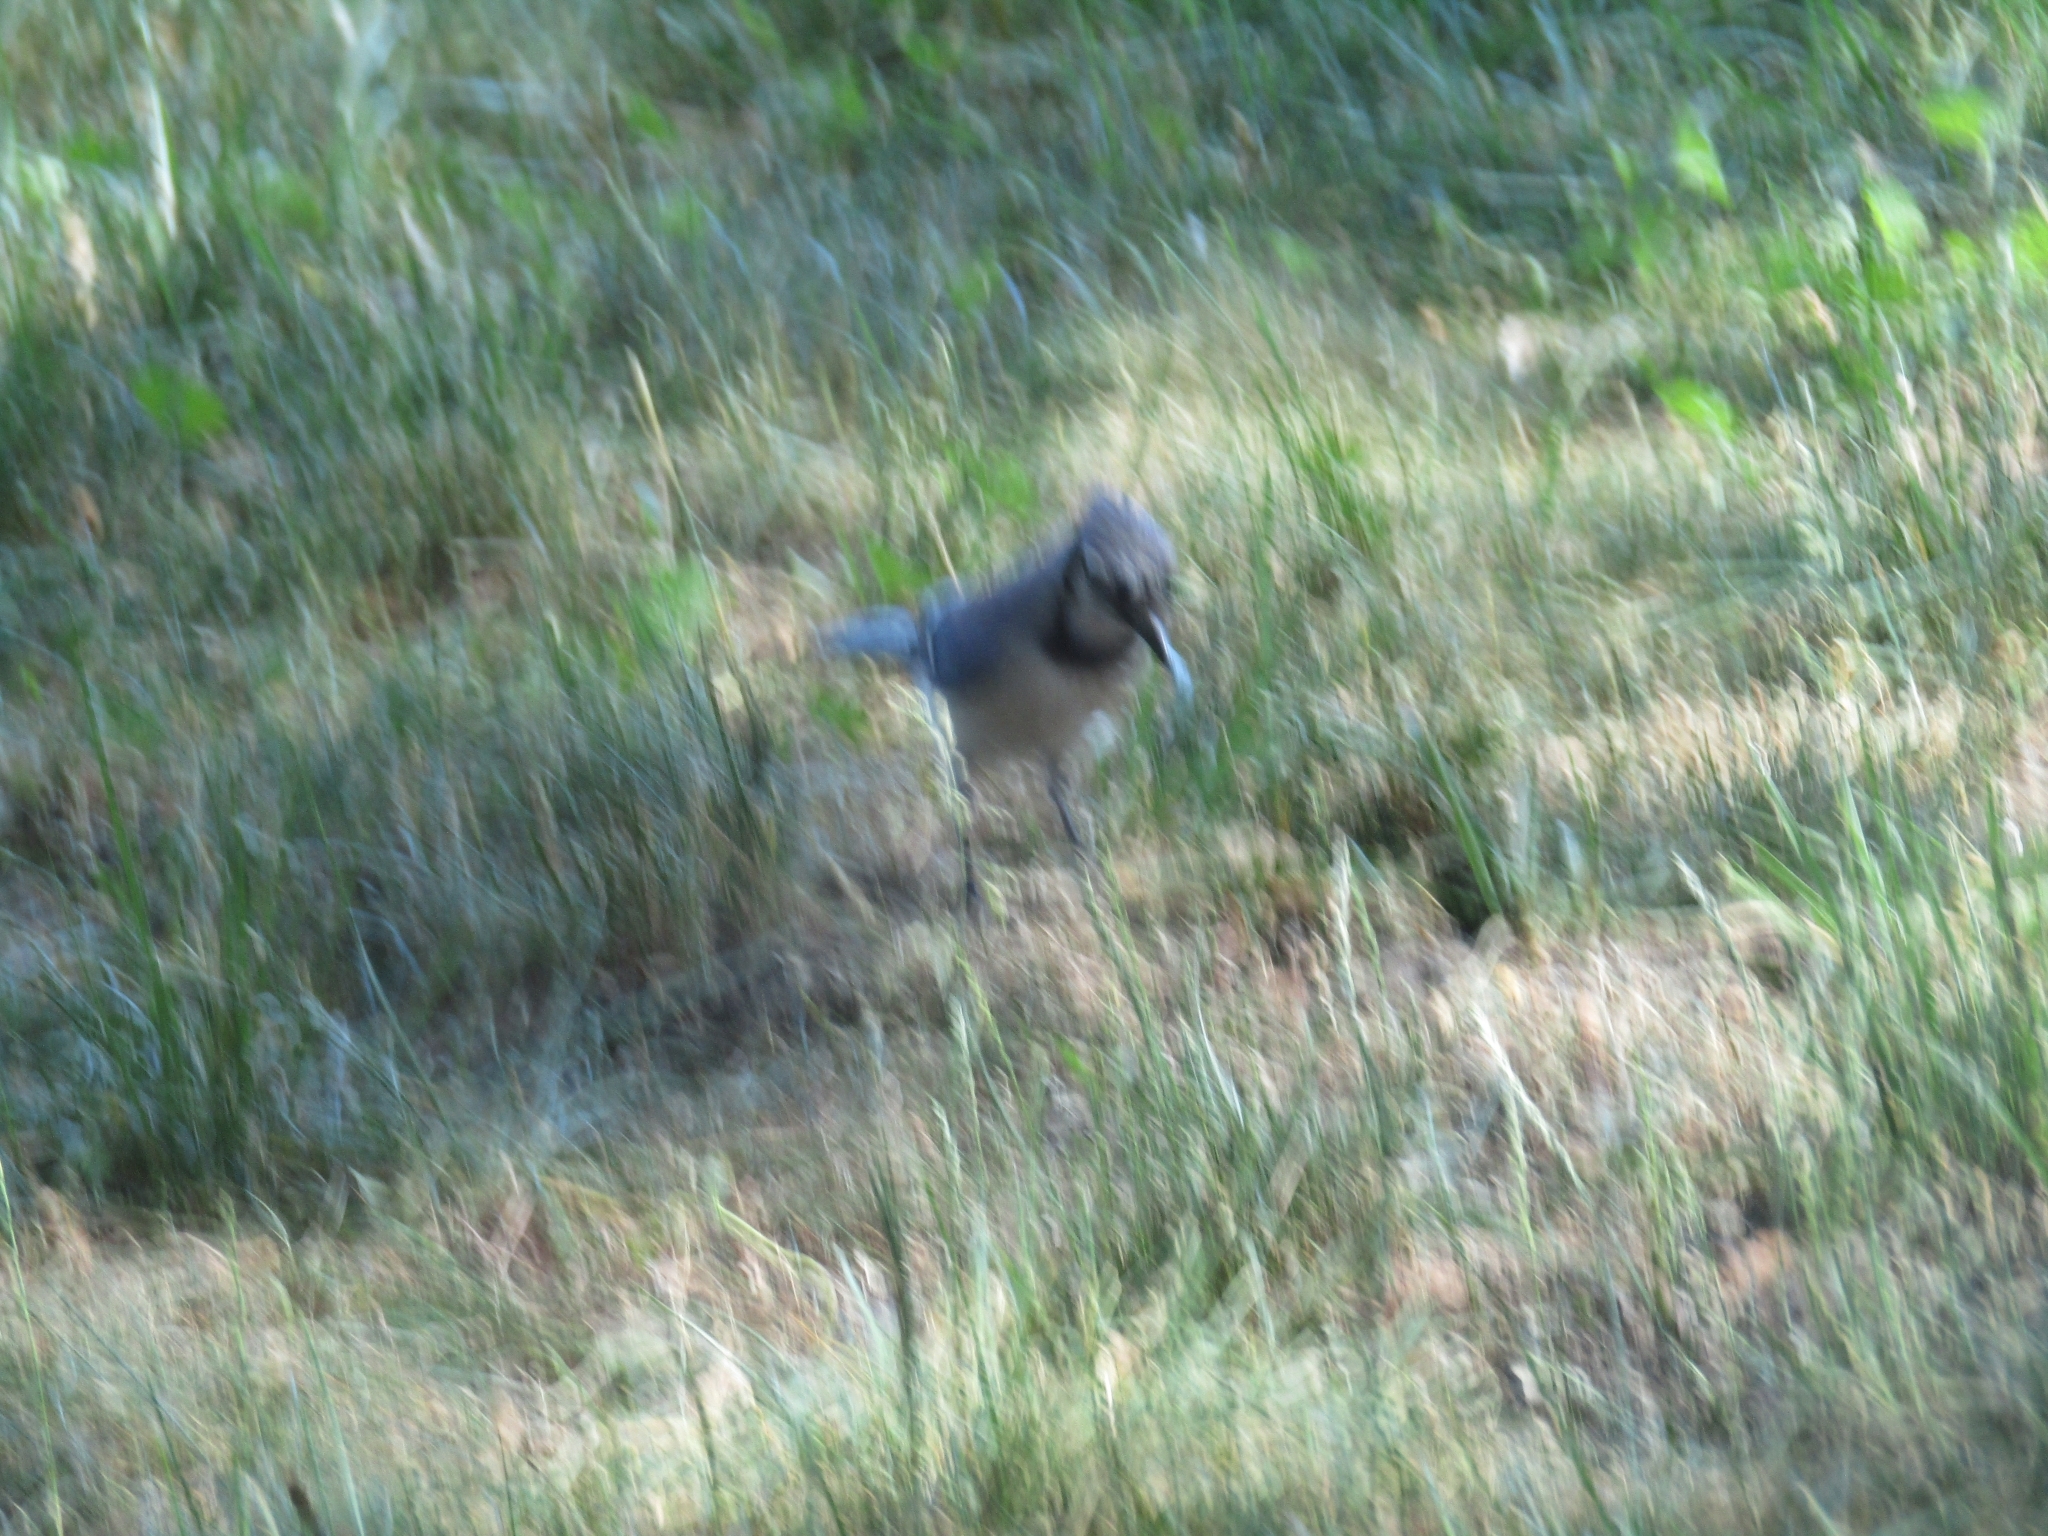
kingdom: Animalia
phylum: Chordata
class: Aves
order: Passeriformes
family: Corvidae
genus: Cyanocitta
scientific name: Cyanocitta cristata
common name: Blue jay
